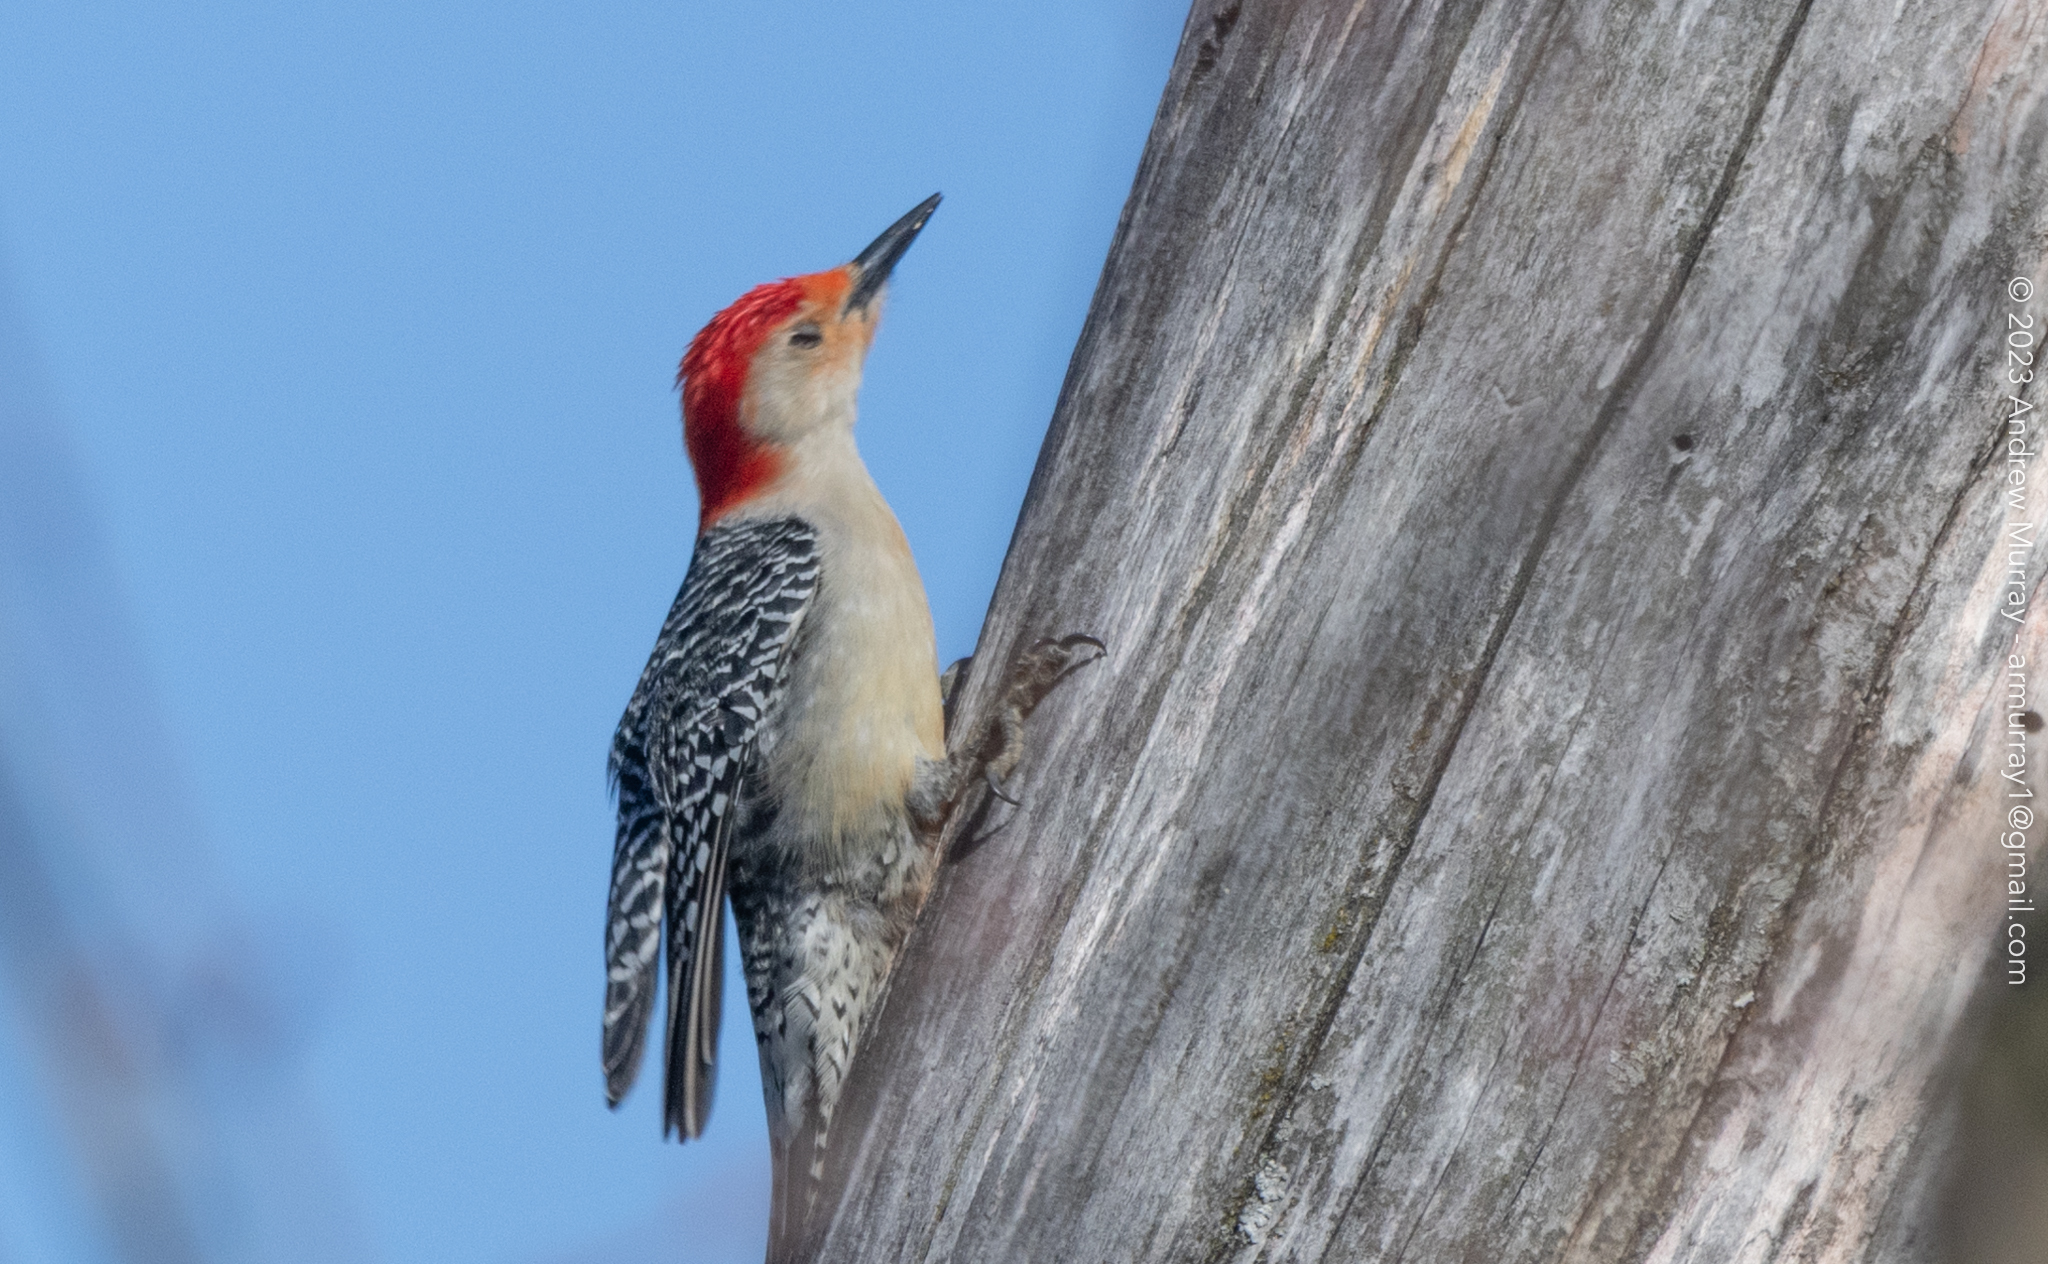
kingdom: Animalia
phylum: Chordata
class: Aves
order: Piciformes
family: Picidae
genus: Melanerpes
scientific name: Melanerpes carolinus
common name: Red-bellied woodpecker
